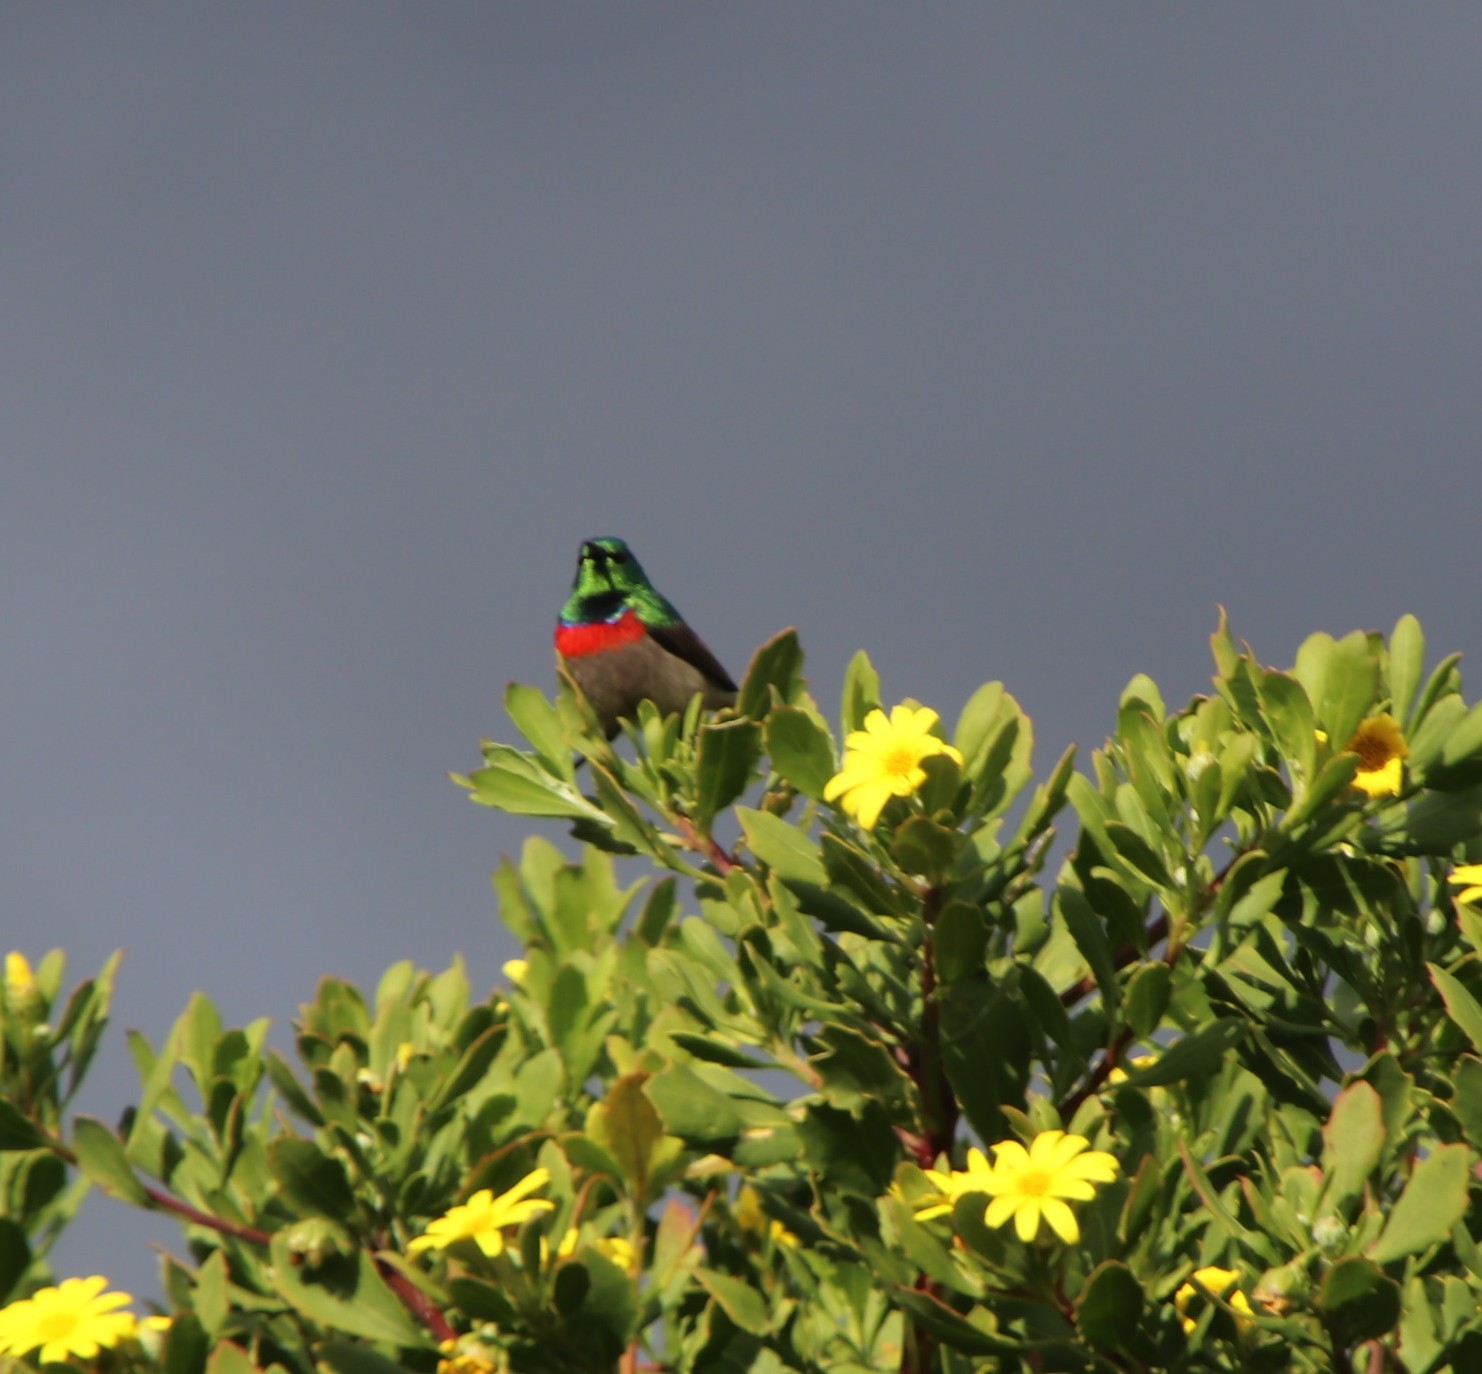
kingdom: Animalia
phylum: Chordata
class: Aves
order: Passeriformes
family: Nectariniidae
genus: Cinnyris
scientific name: Cinnyris chalybeus
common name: Southern double-collared sunbird
